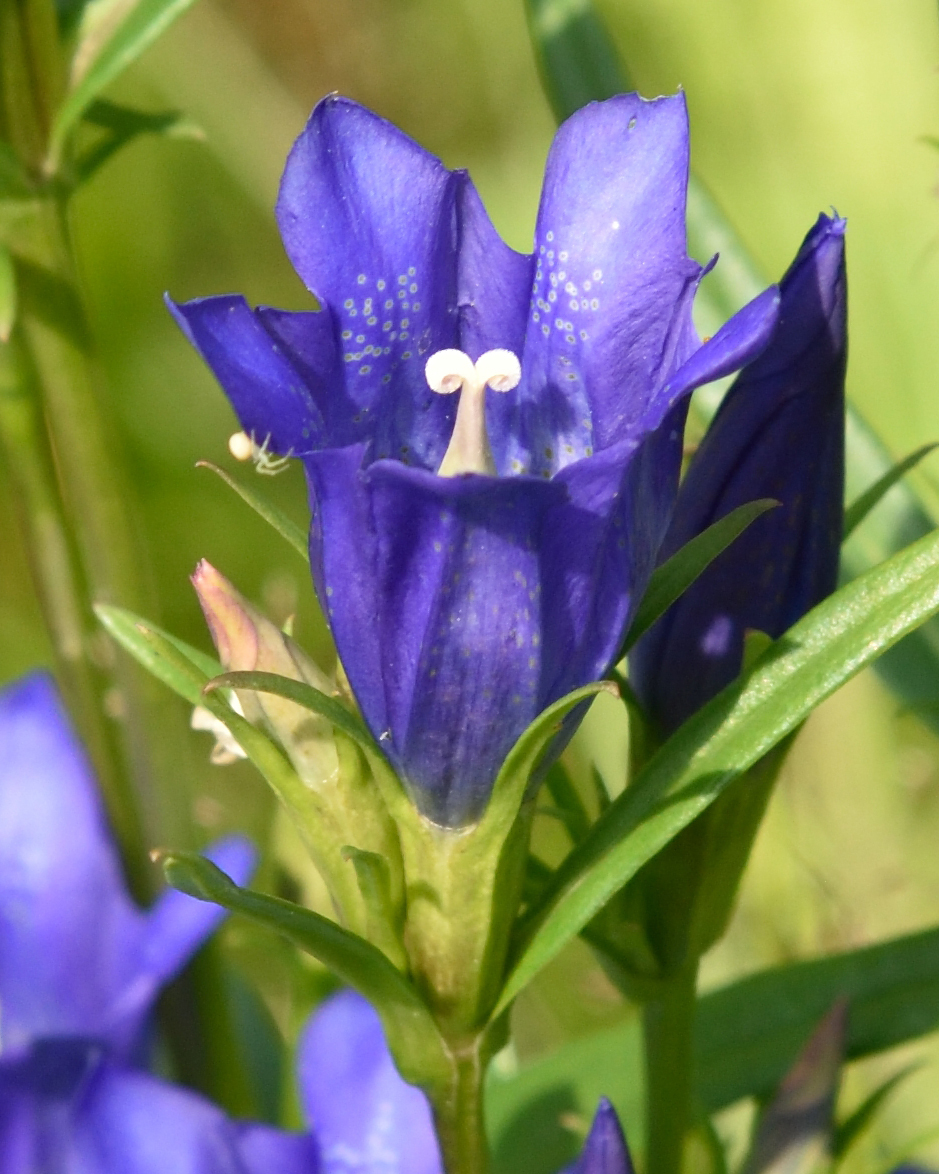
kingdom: Plantae
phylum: Tracheophyta
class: Magnoliopsida
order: Gentianales
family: Gentianaceae
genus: Gentiana
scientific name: Gentiana pneumonanthe
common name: Marsh gentian
